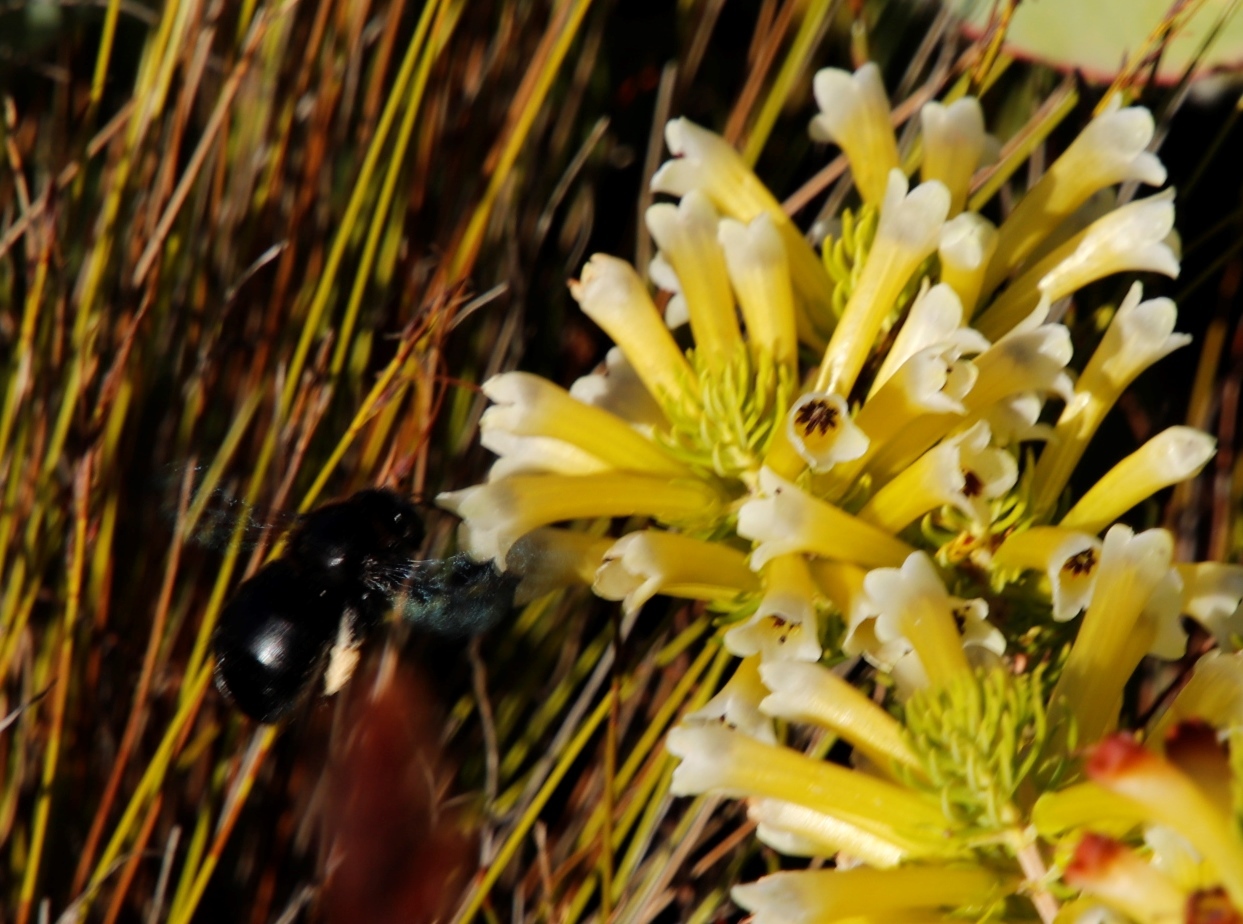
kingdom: Animalia
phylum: Arthropoda
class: Insecta
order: Hymenoptera
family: Apidae
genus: Xylocopa
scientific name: Xylocopa albifrons
